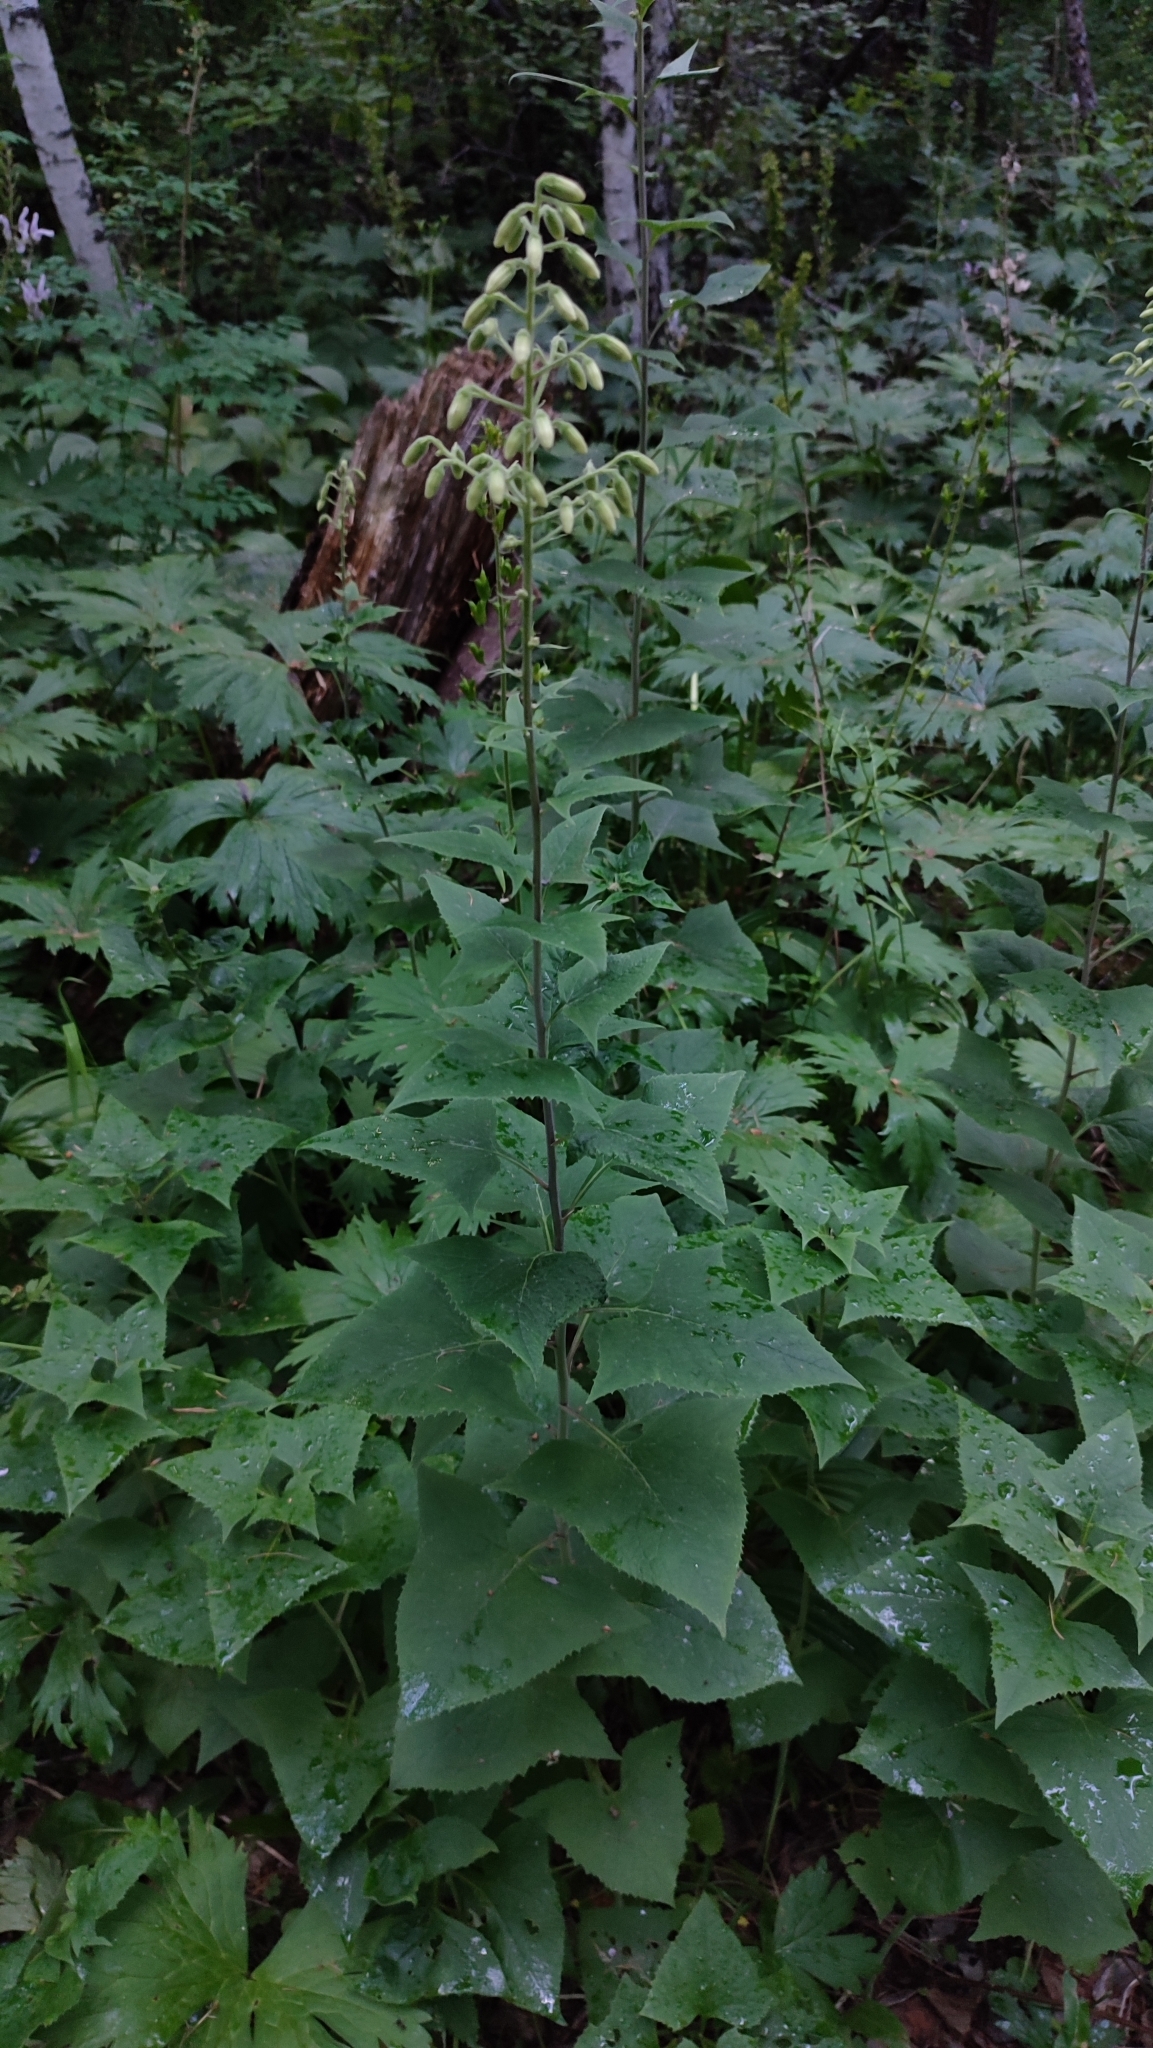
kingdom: Plantae
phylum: Tracheophyta
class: Magnoliopsida
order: Asterales
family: Asteraceae
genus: Parasenecio
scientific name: Parasenecio hastatus
